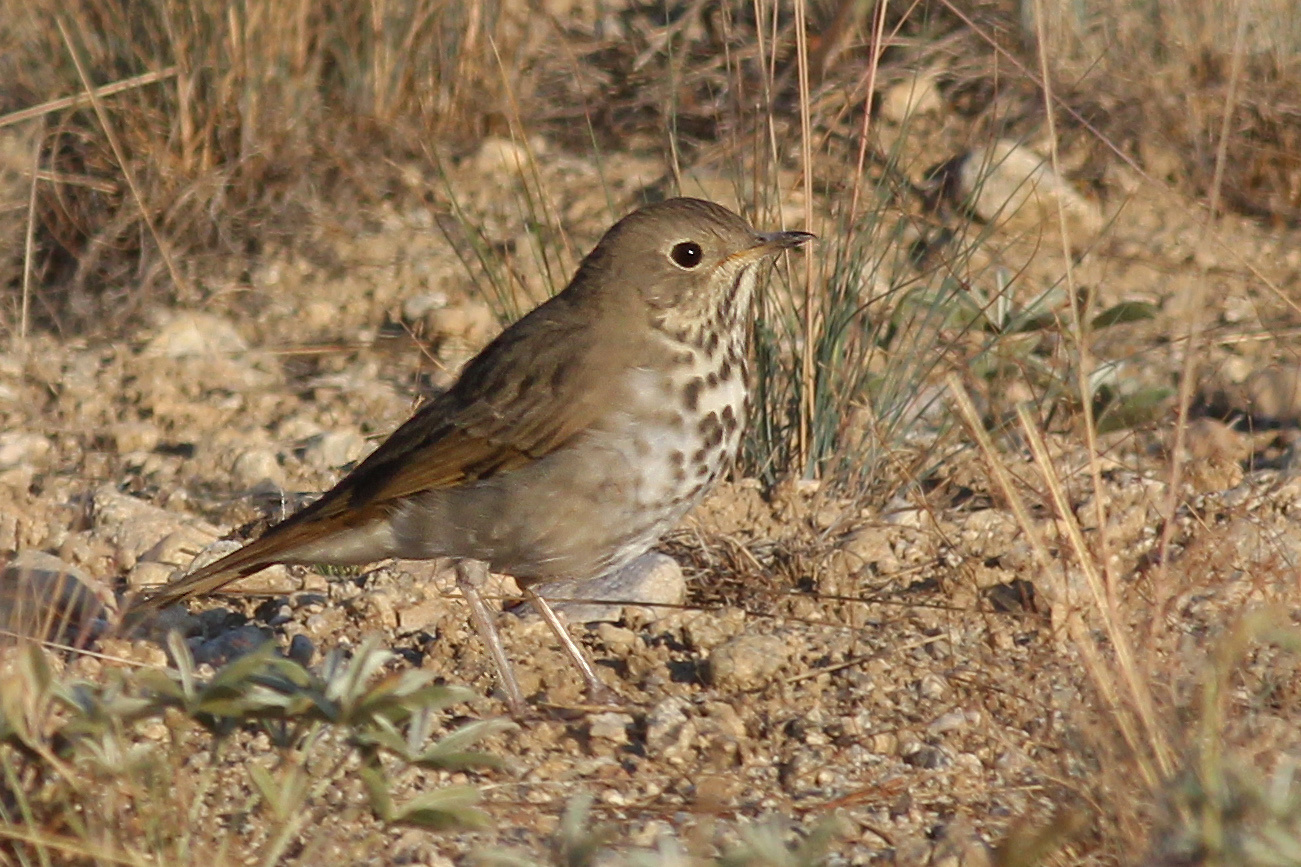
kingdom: Animalia
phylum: Chordata
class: Aves
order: Passeriformes
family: Turdidae
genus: Catharus
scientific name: Catharus guttatus
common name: Hermit thrush
